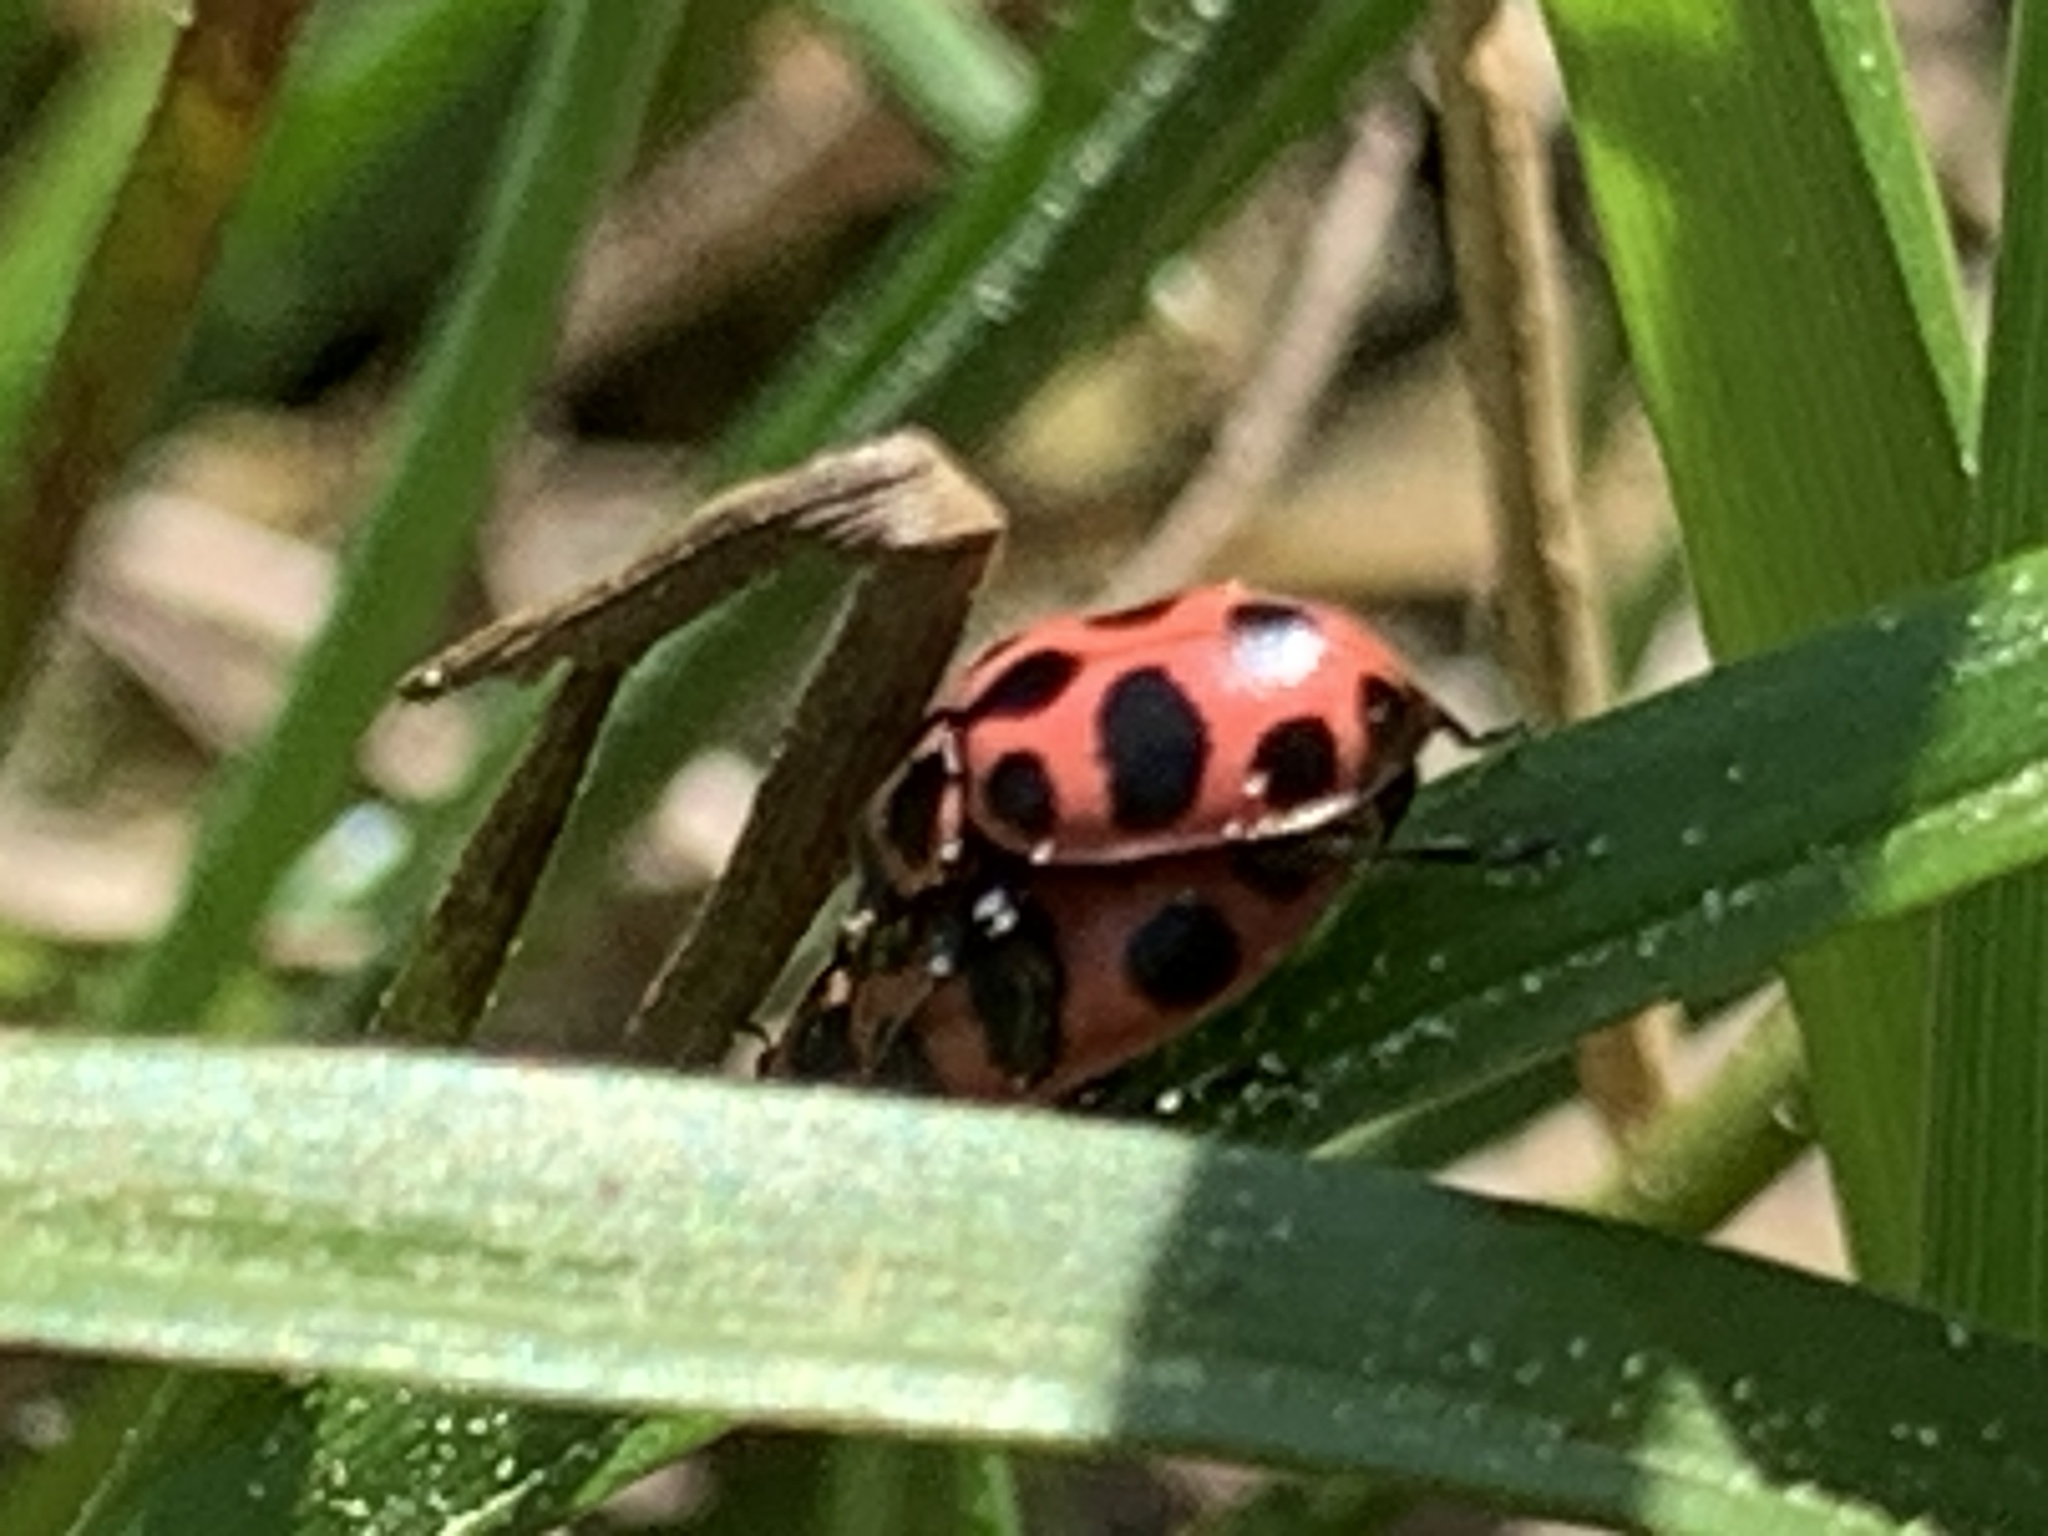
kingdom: Animalia
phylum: Arthropoda
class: Insecta
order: Coleoptera
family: Coccinellidae
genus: Coleomegilla
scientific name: Coleomegilla maculata
